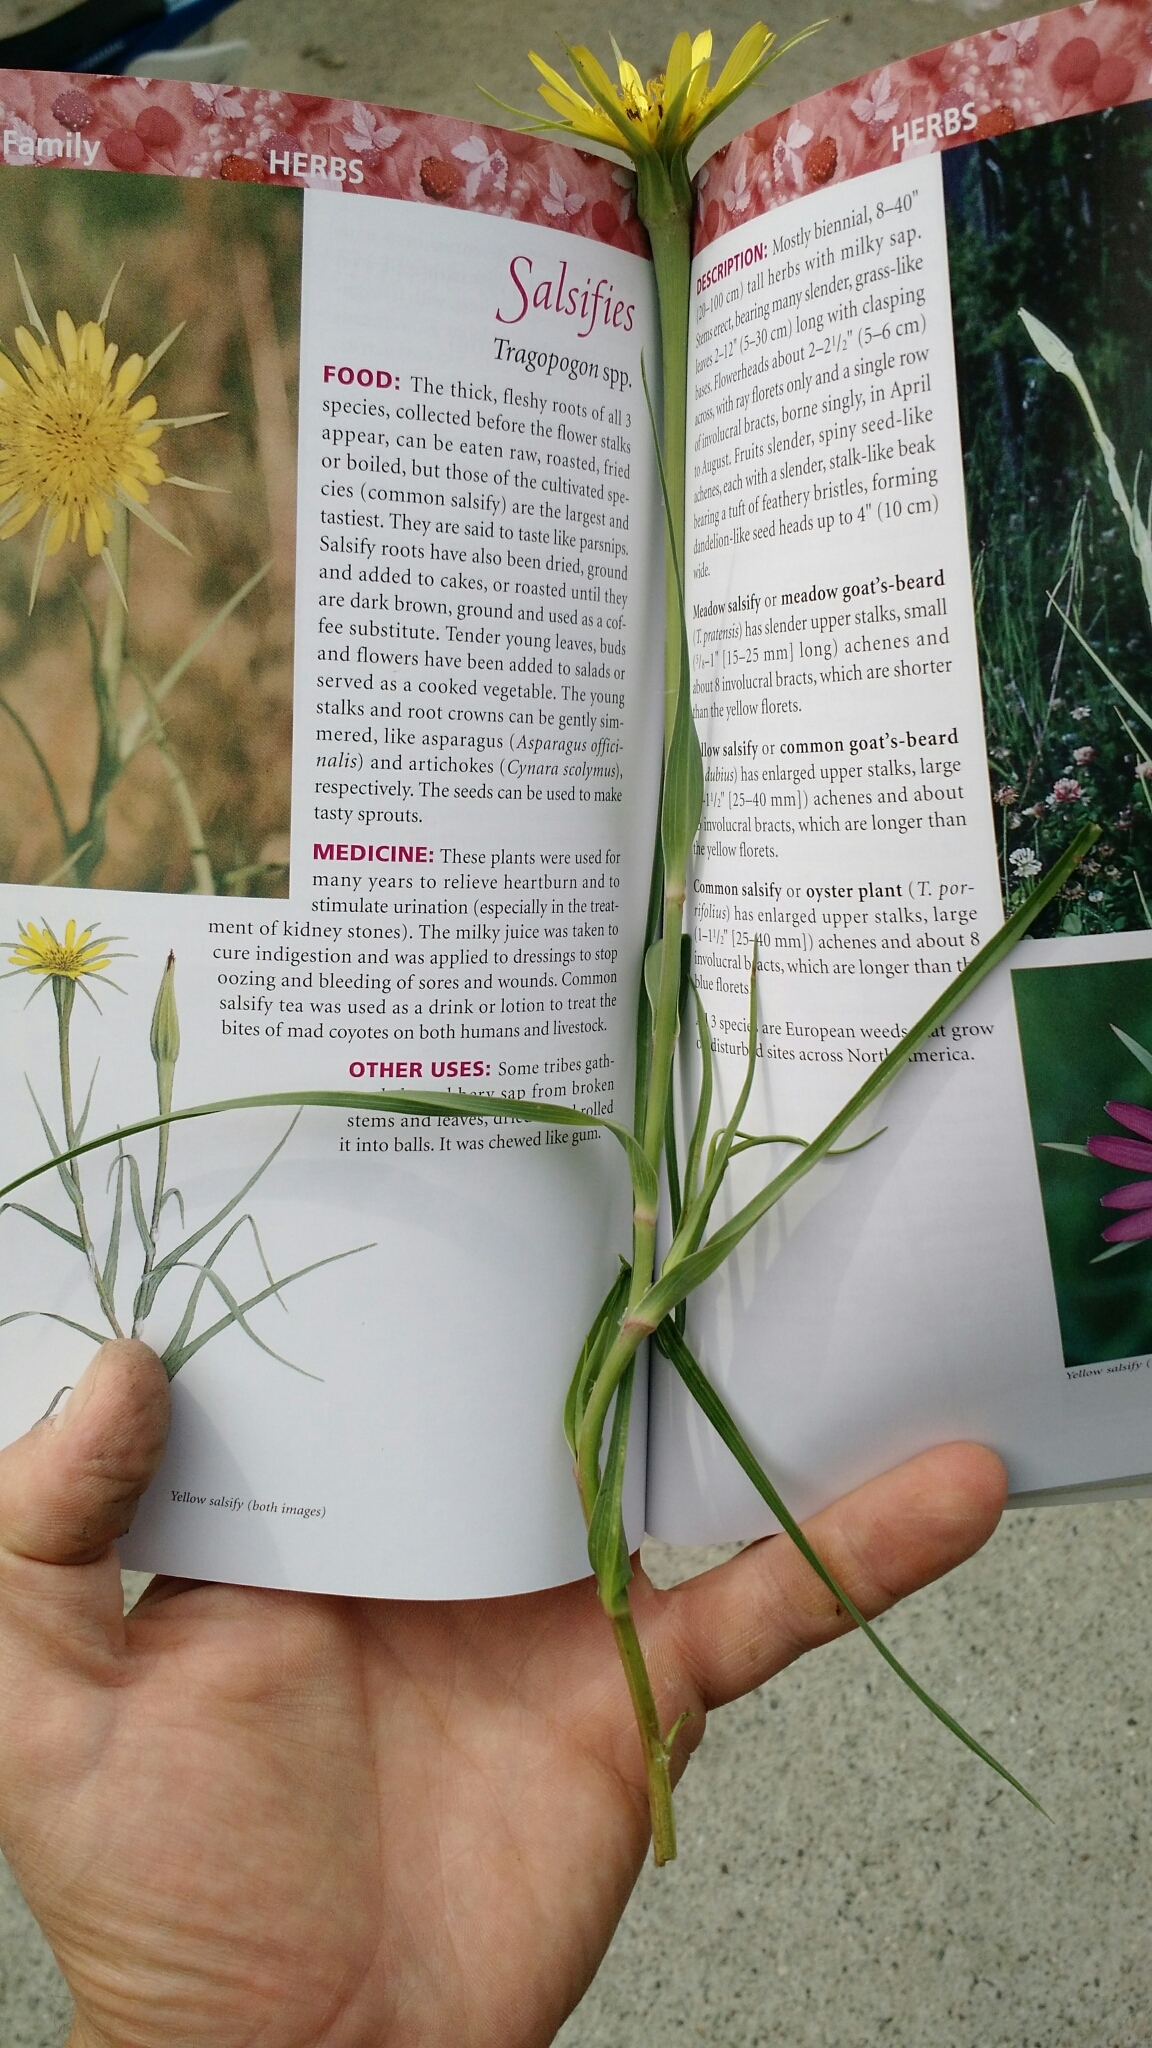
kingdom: Plantae
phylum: Tracheophyta
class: Magnoliopsida
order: Asterales
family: Asteraceae
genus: Tragopogon
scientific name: Tragopogon dubius
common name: Yellow salsify
